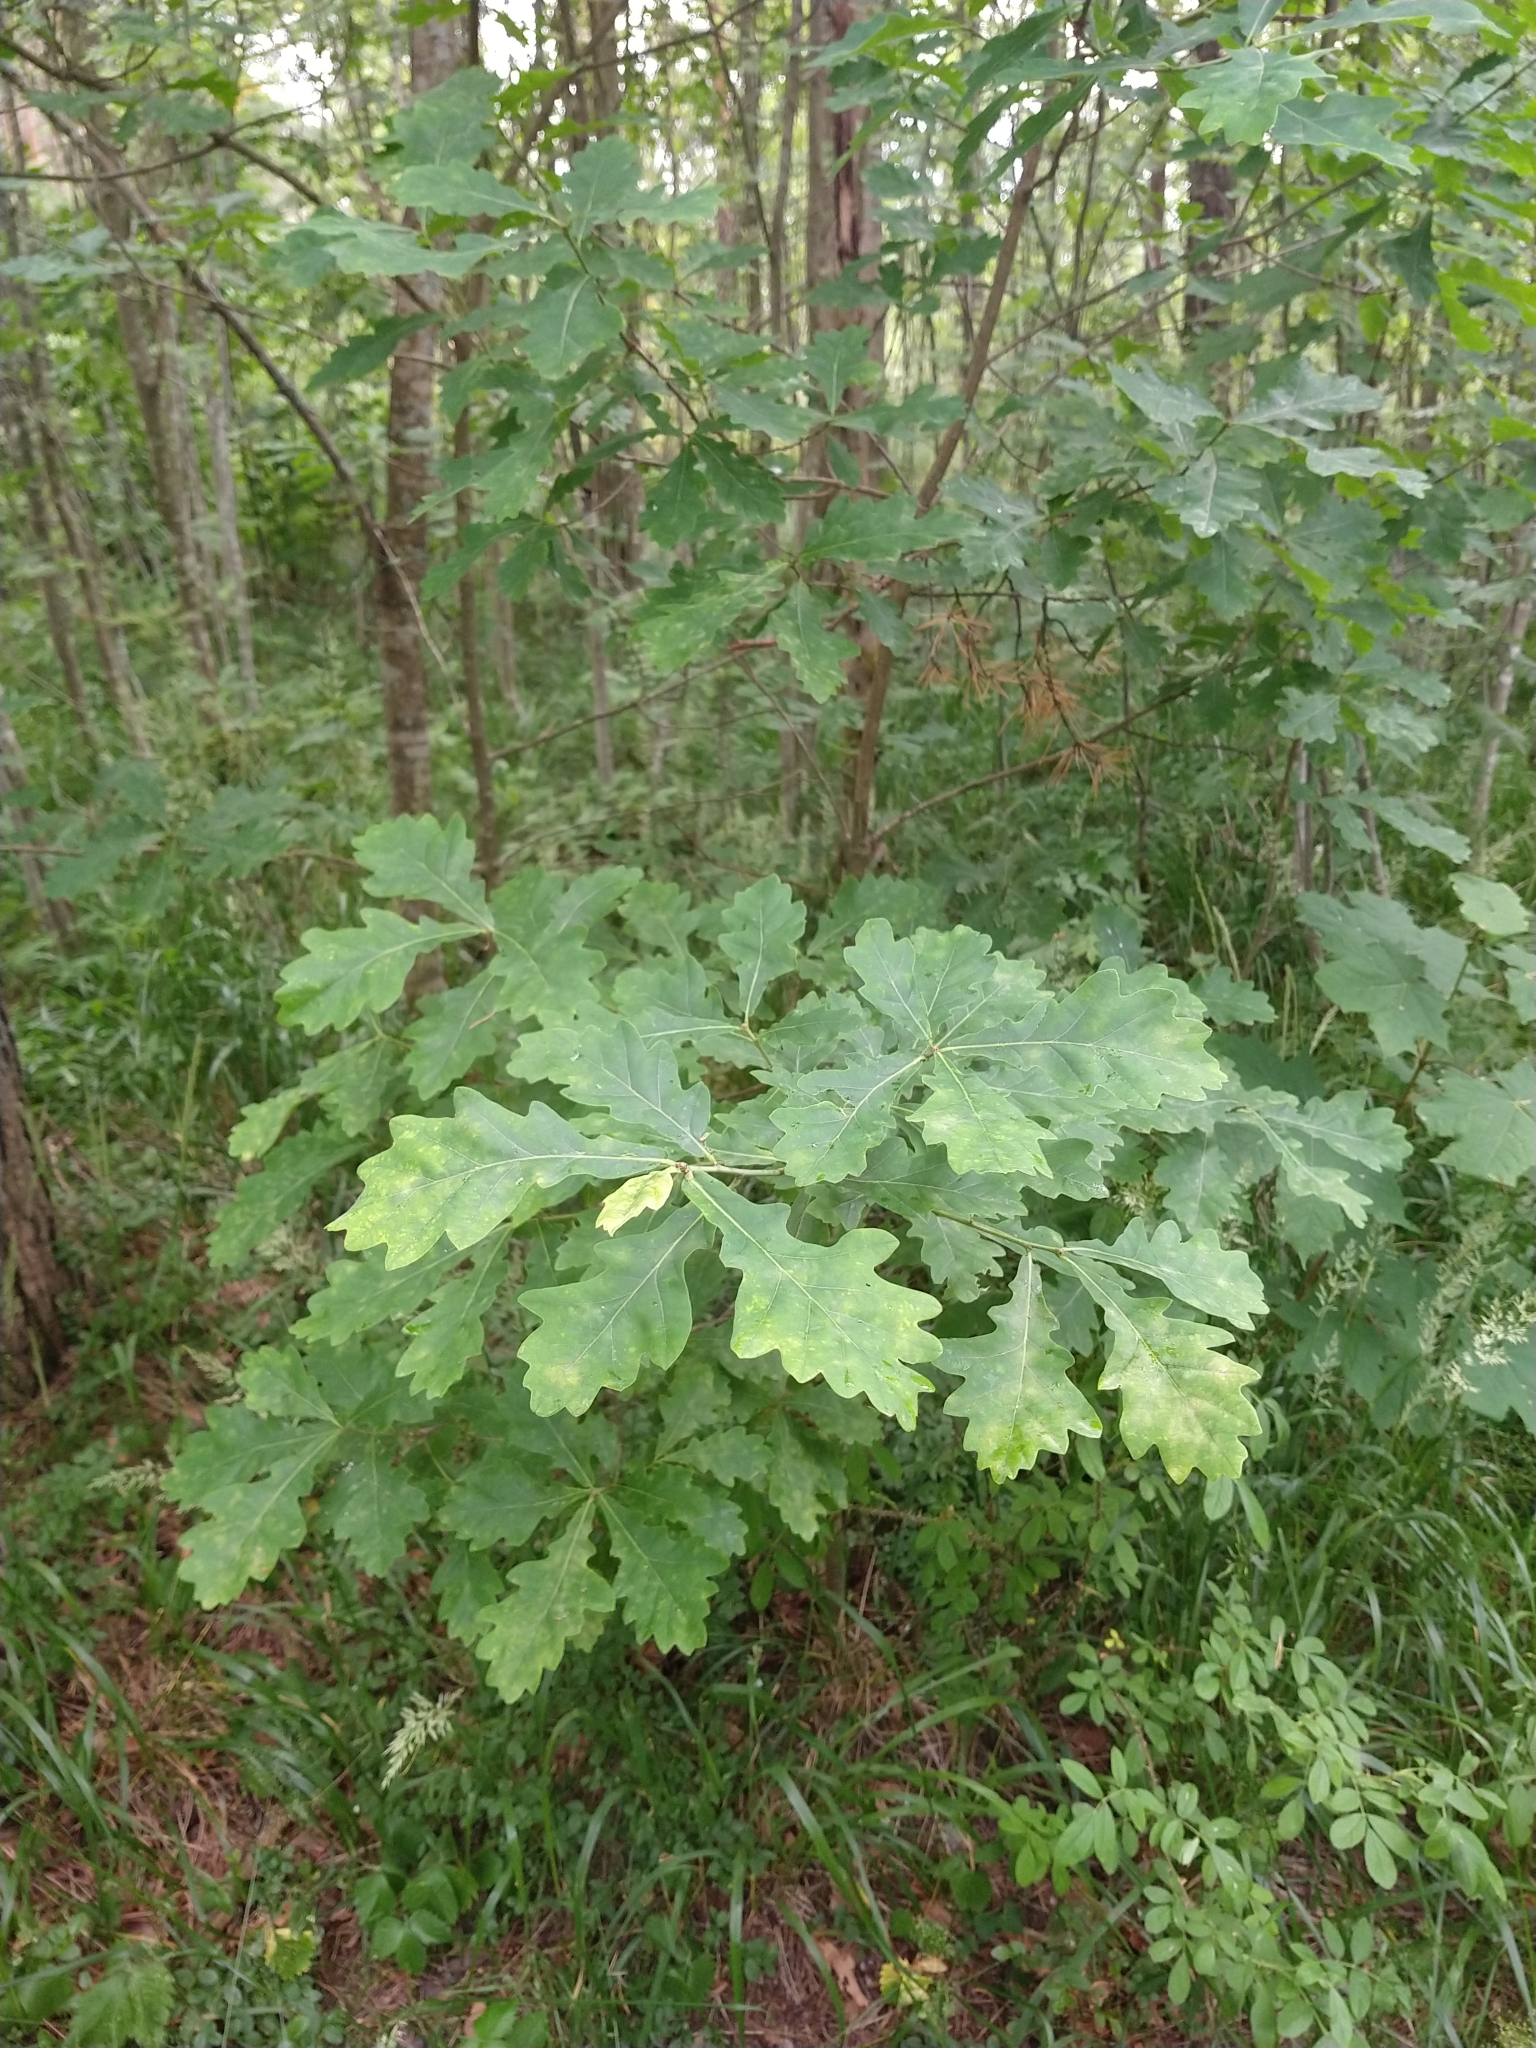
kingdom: Plantae
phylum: Tracheophyta
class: Magnoliopsida
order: Fagales
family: Fagaceae
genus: Quercus
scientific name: Quercus robur
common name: Pedunculate oak
